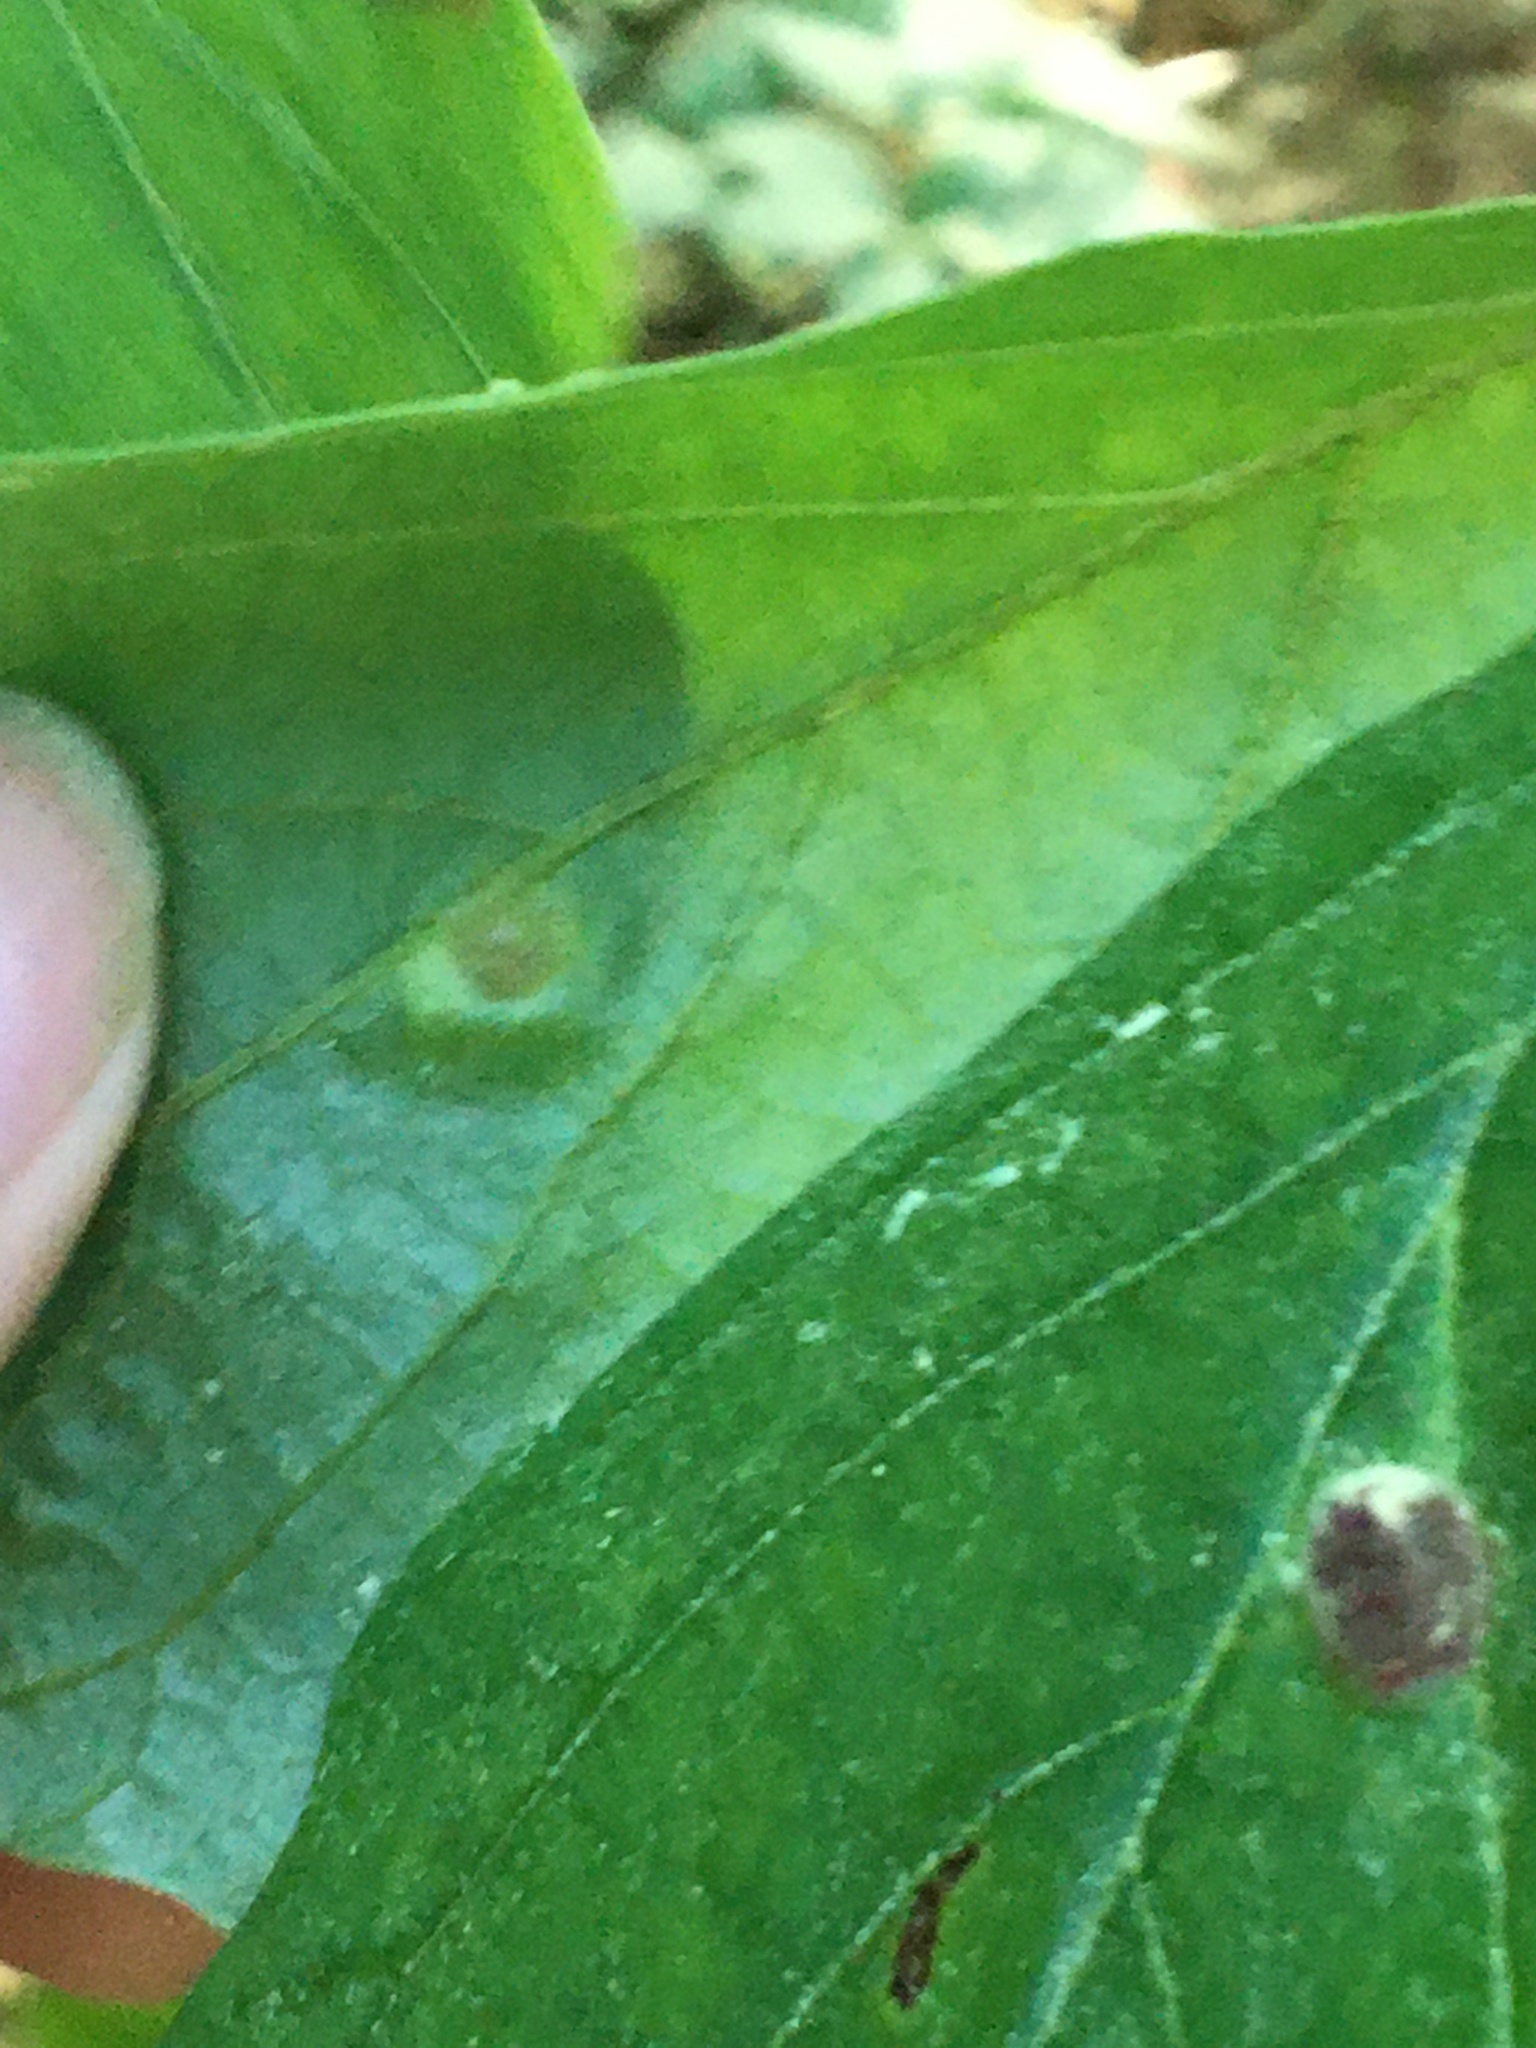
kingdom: Animalia
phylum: Arthropoda
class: Insecta
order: Hemiptera
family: Aphididae
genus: Hormaphis
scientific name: Hormaphis hamamelidis
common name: Witch-hazel cone gall aphid
